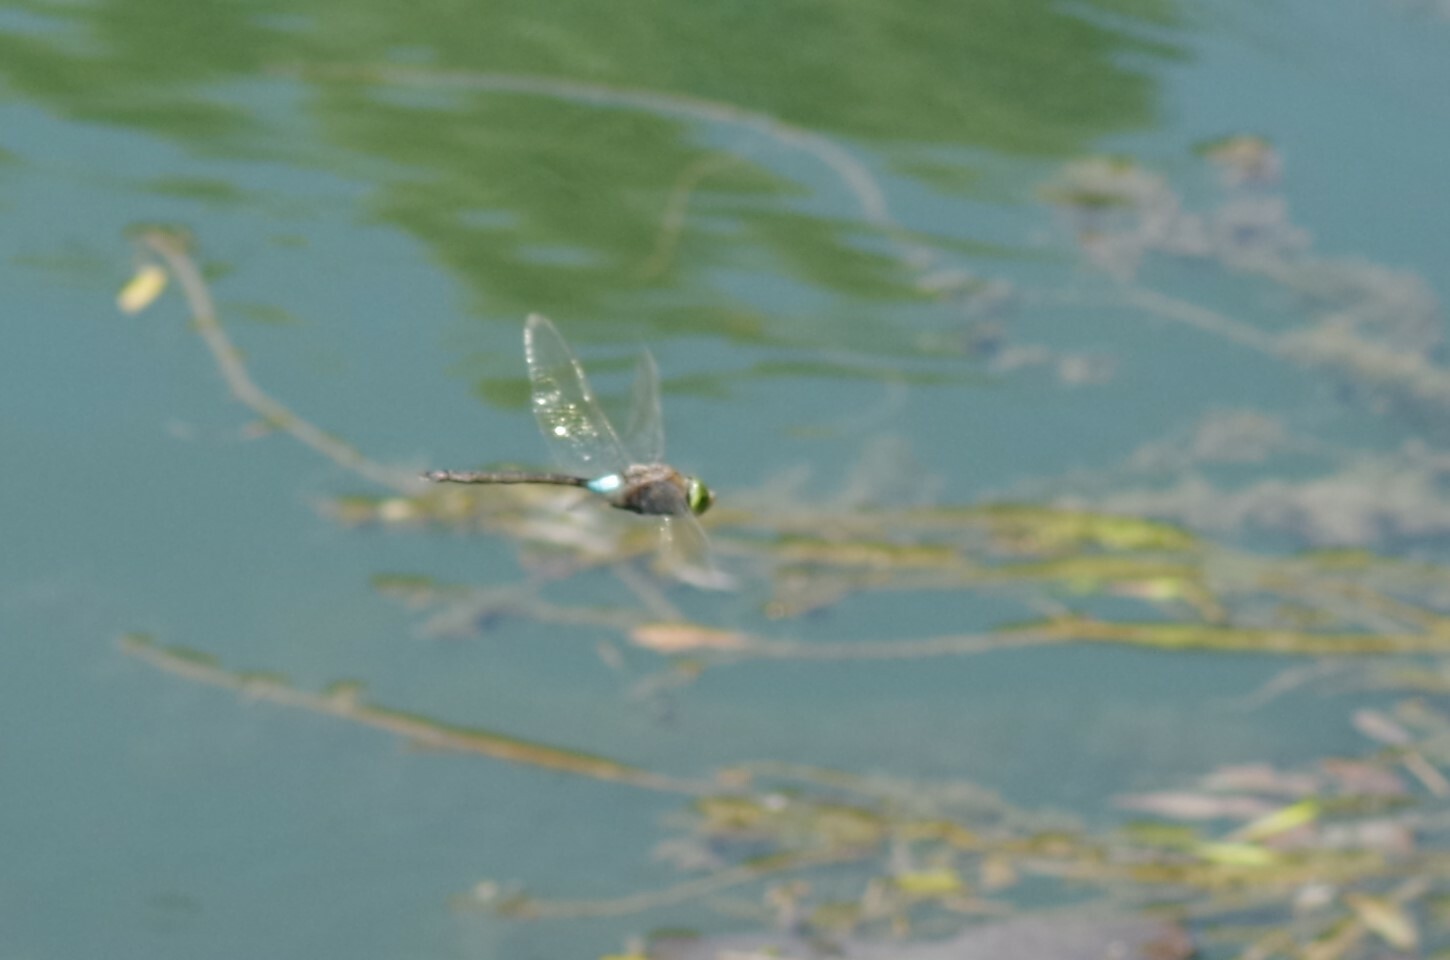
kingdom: Animalia
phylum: Arthropoda
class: Insecta
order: Odonata
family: Aeshnidae
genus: Anax
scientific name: Anax parthenope
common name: Lesser emperor
